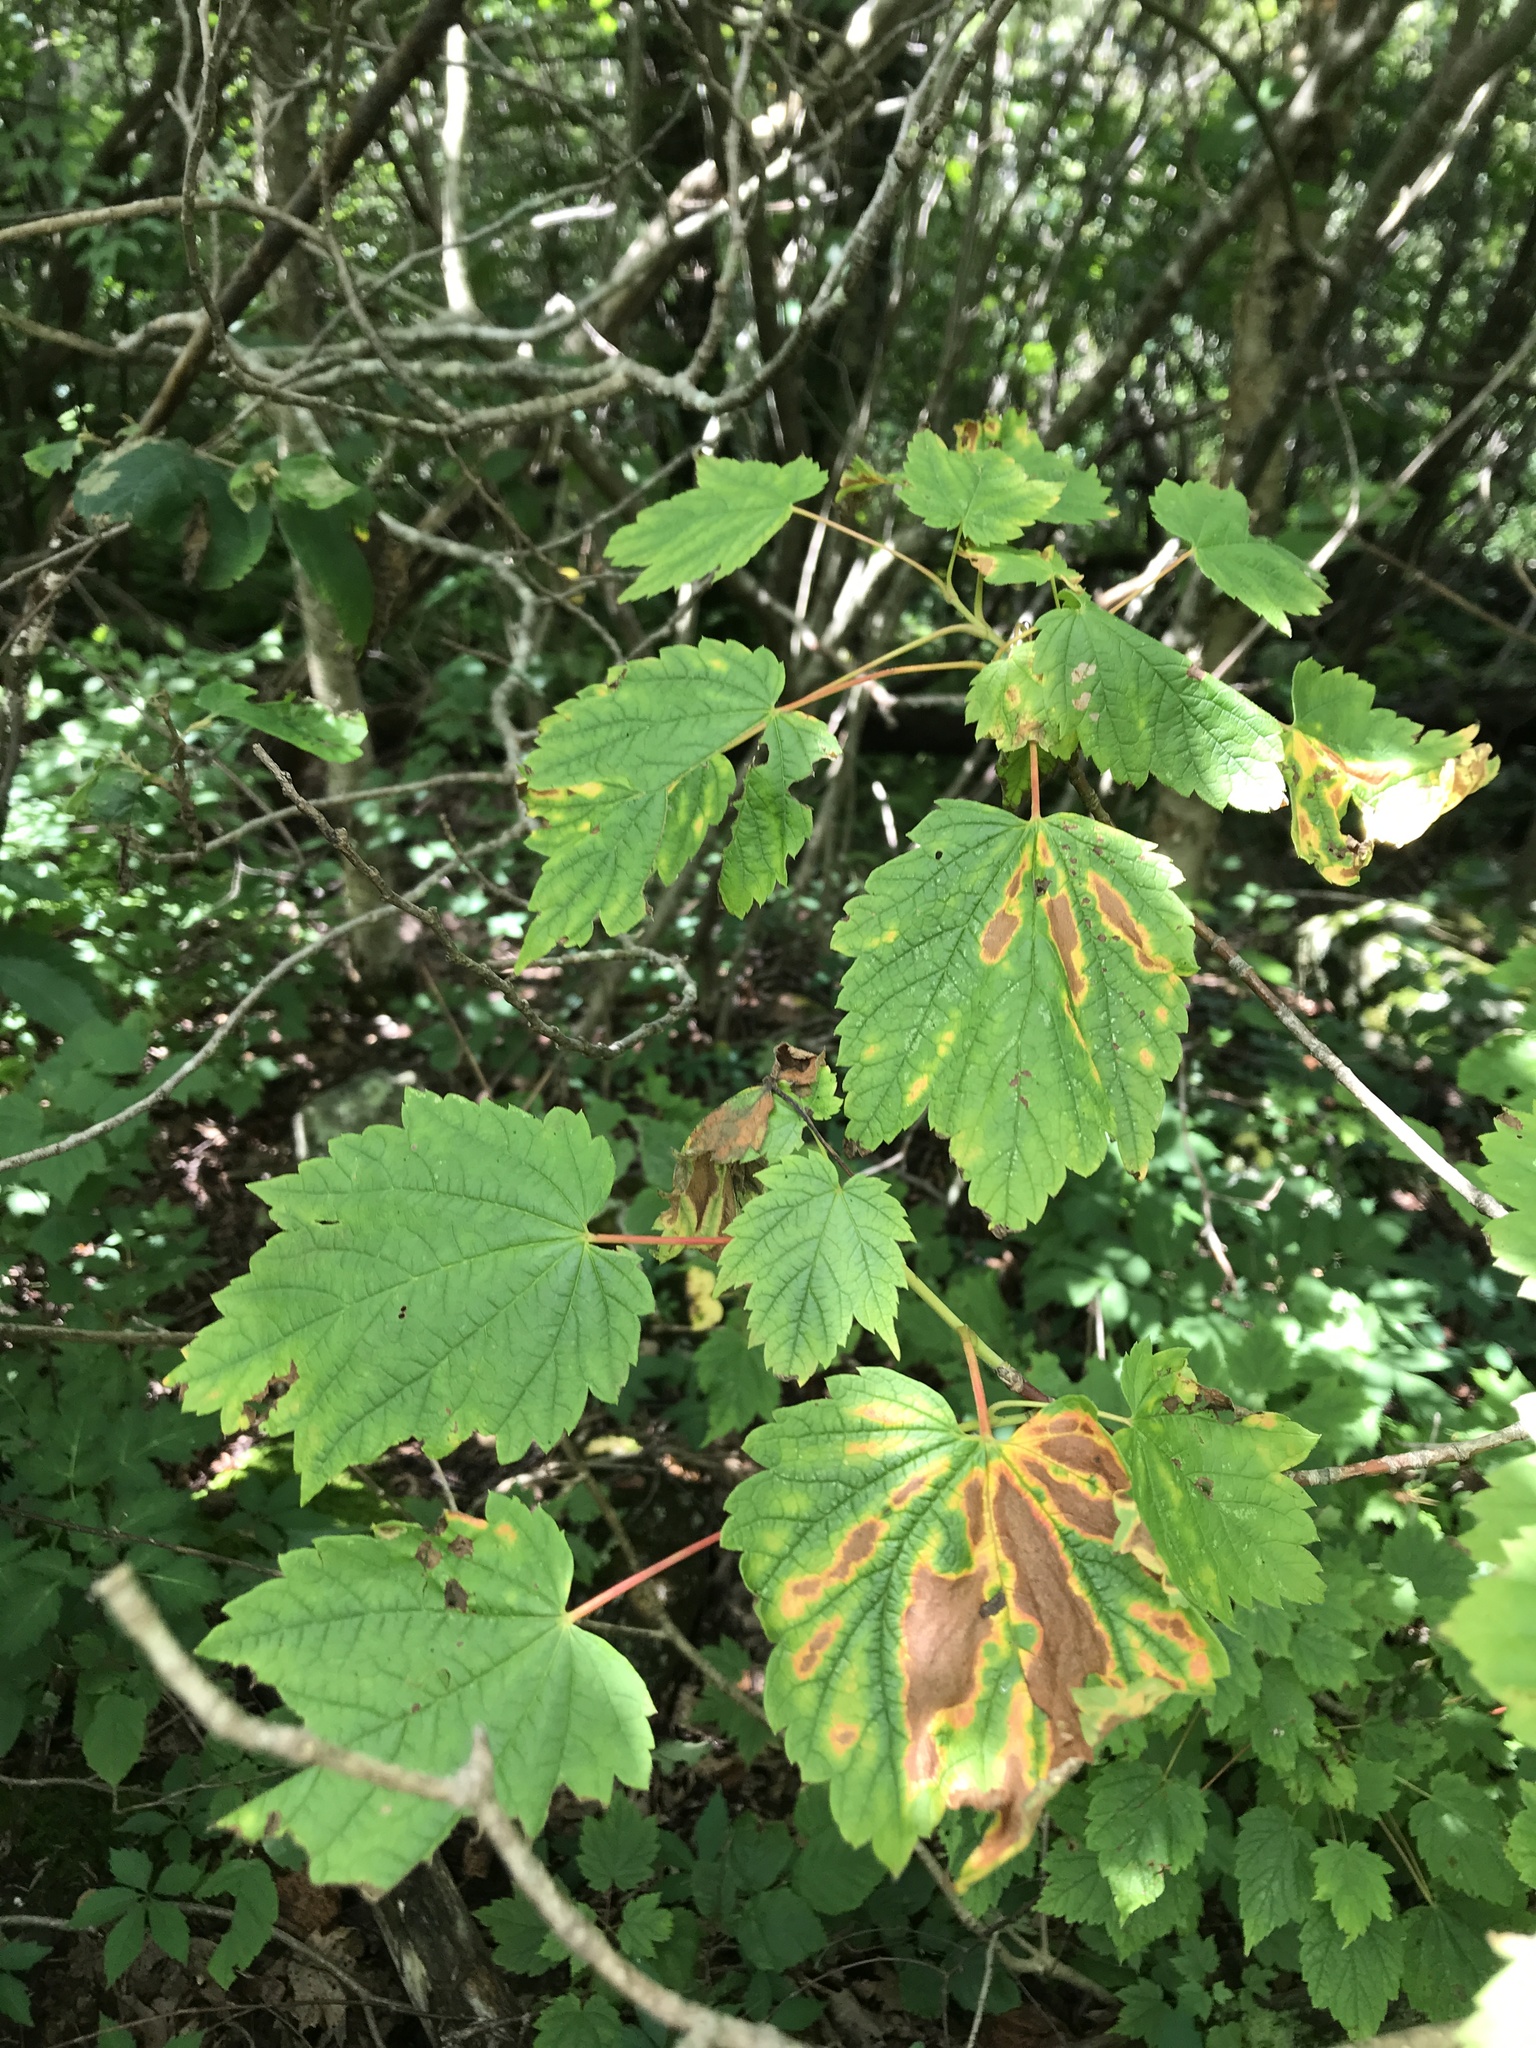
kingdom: Plantae
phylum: Tracheophyta
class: Magnoliopsida
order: Sapindales
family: Sapindaceae
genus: Acer
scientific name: Acer spicatum
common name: Mountain maple
